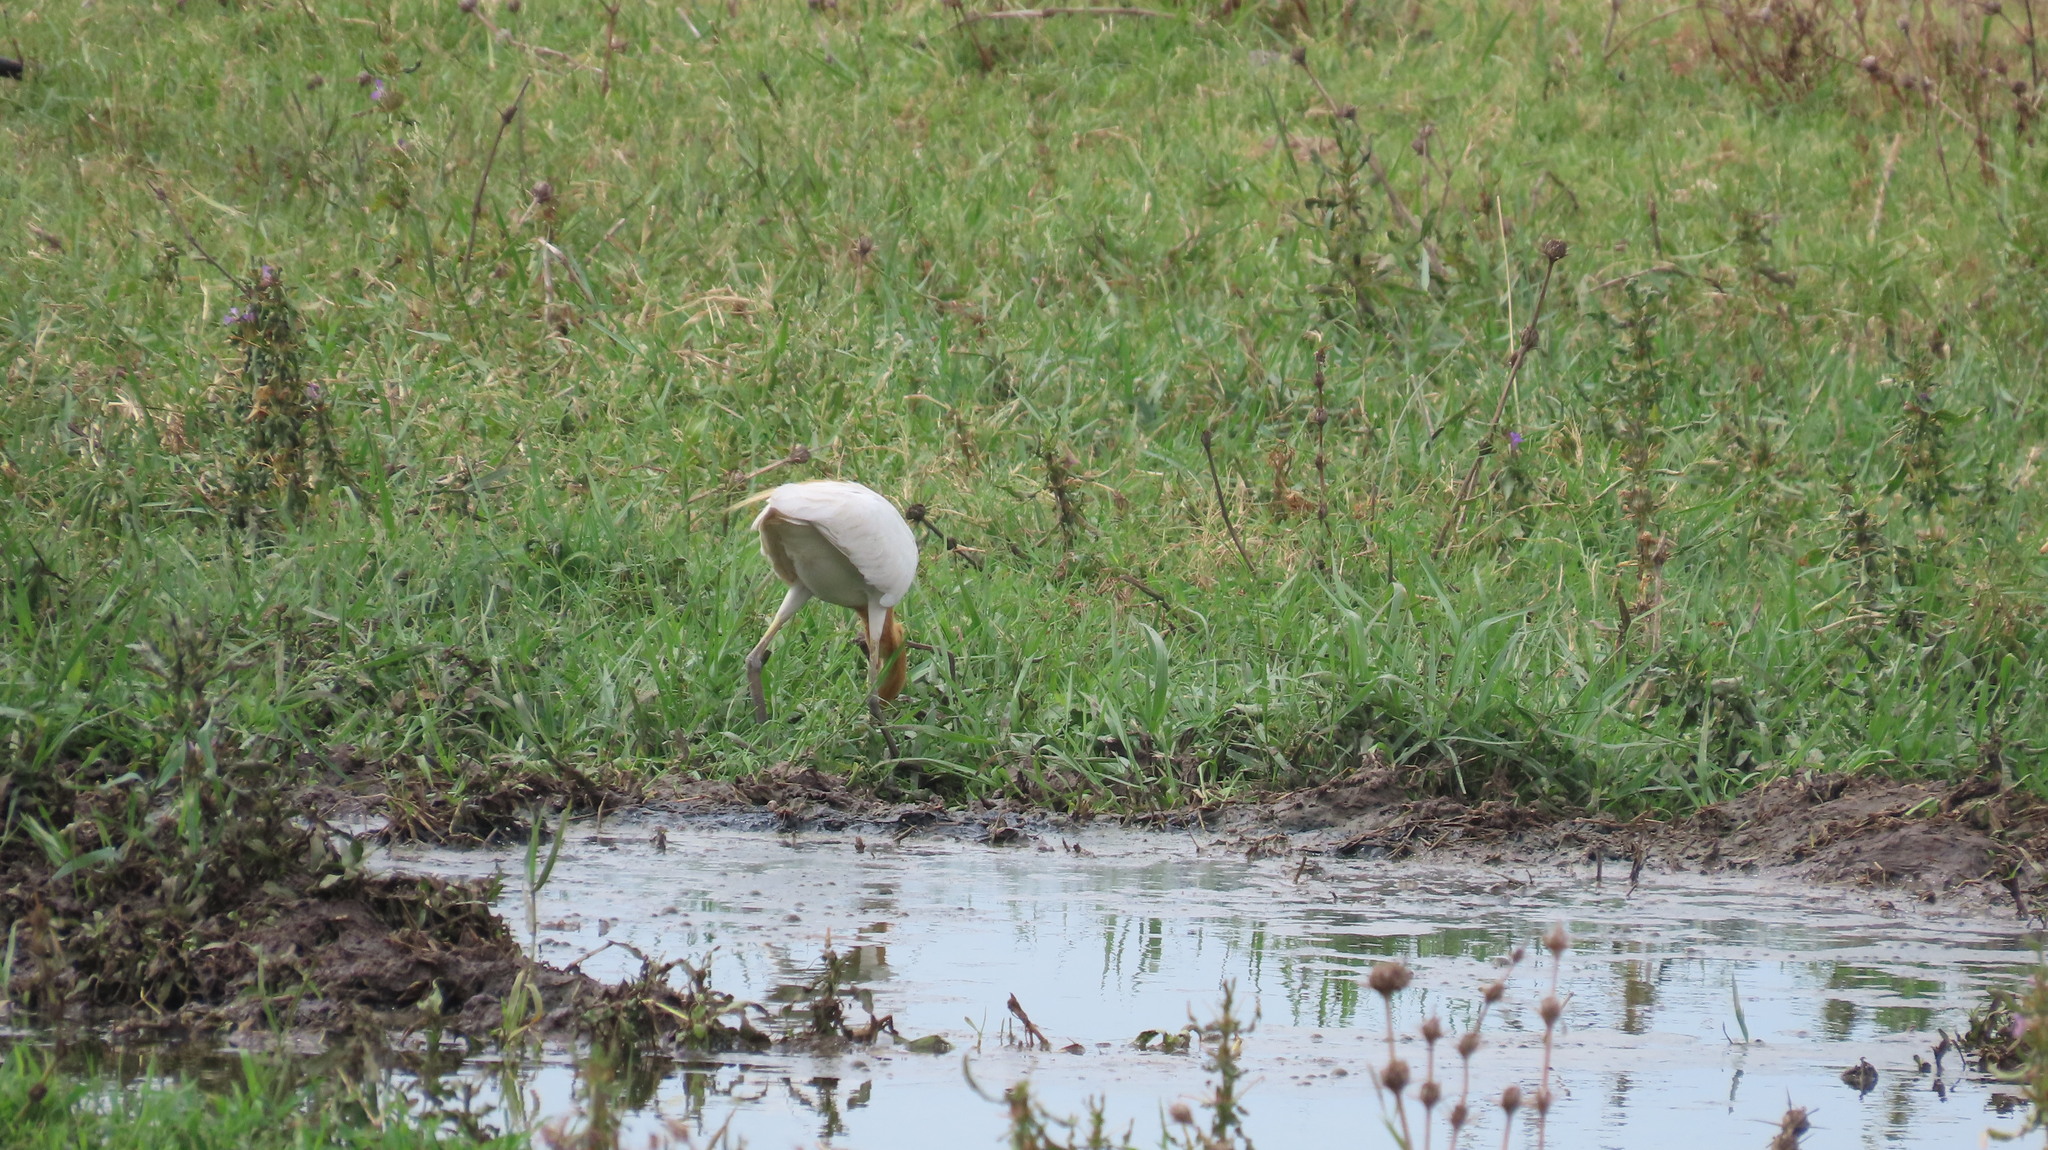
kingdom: Animalia
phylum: Chordata
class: Aves
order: Pelecaniformes
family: Ardeidae
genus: Bubulcus
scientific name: Bubulcus coromandus
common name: Eastern cattle egret
